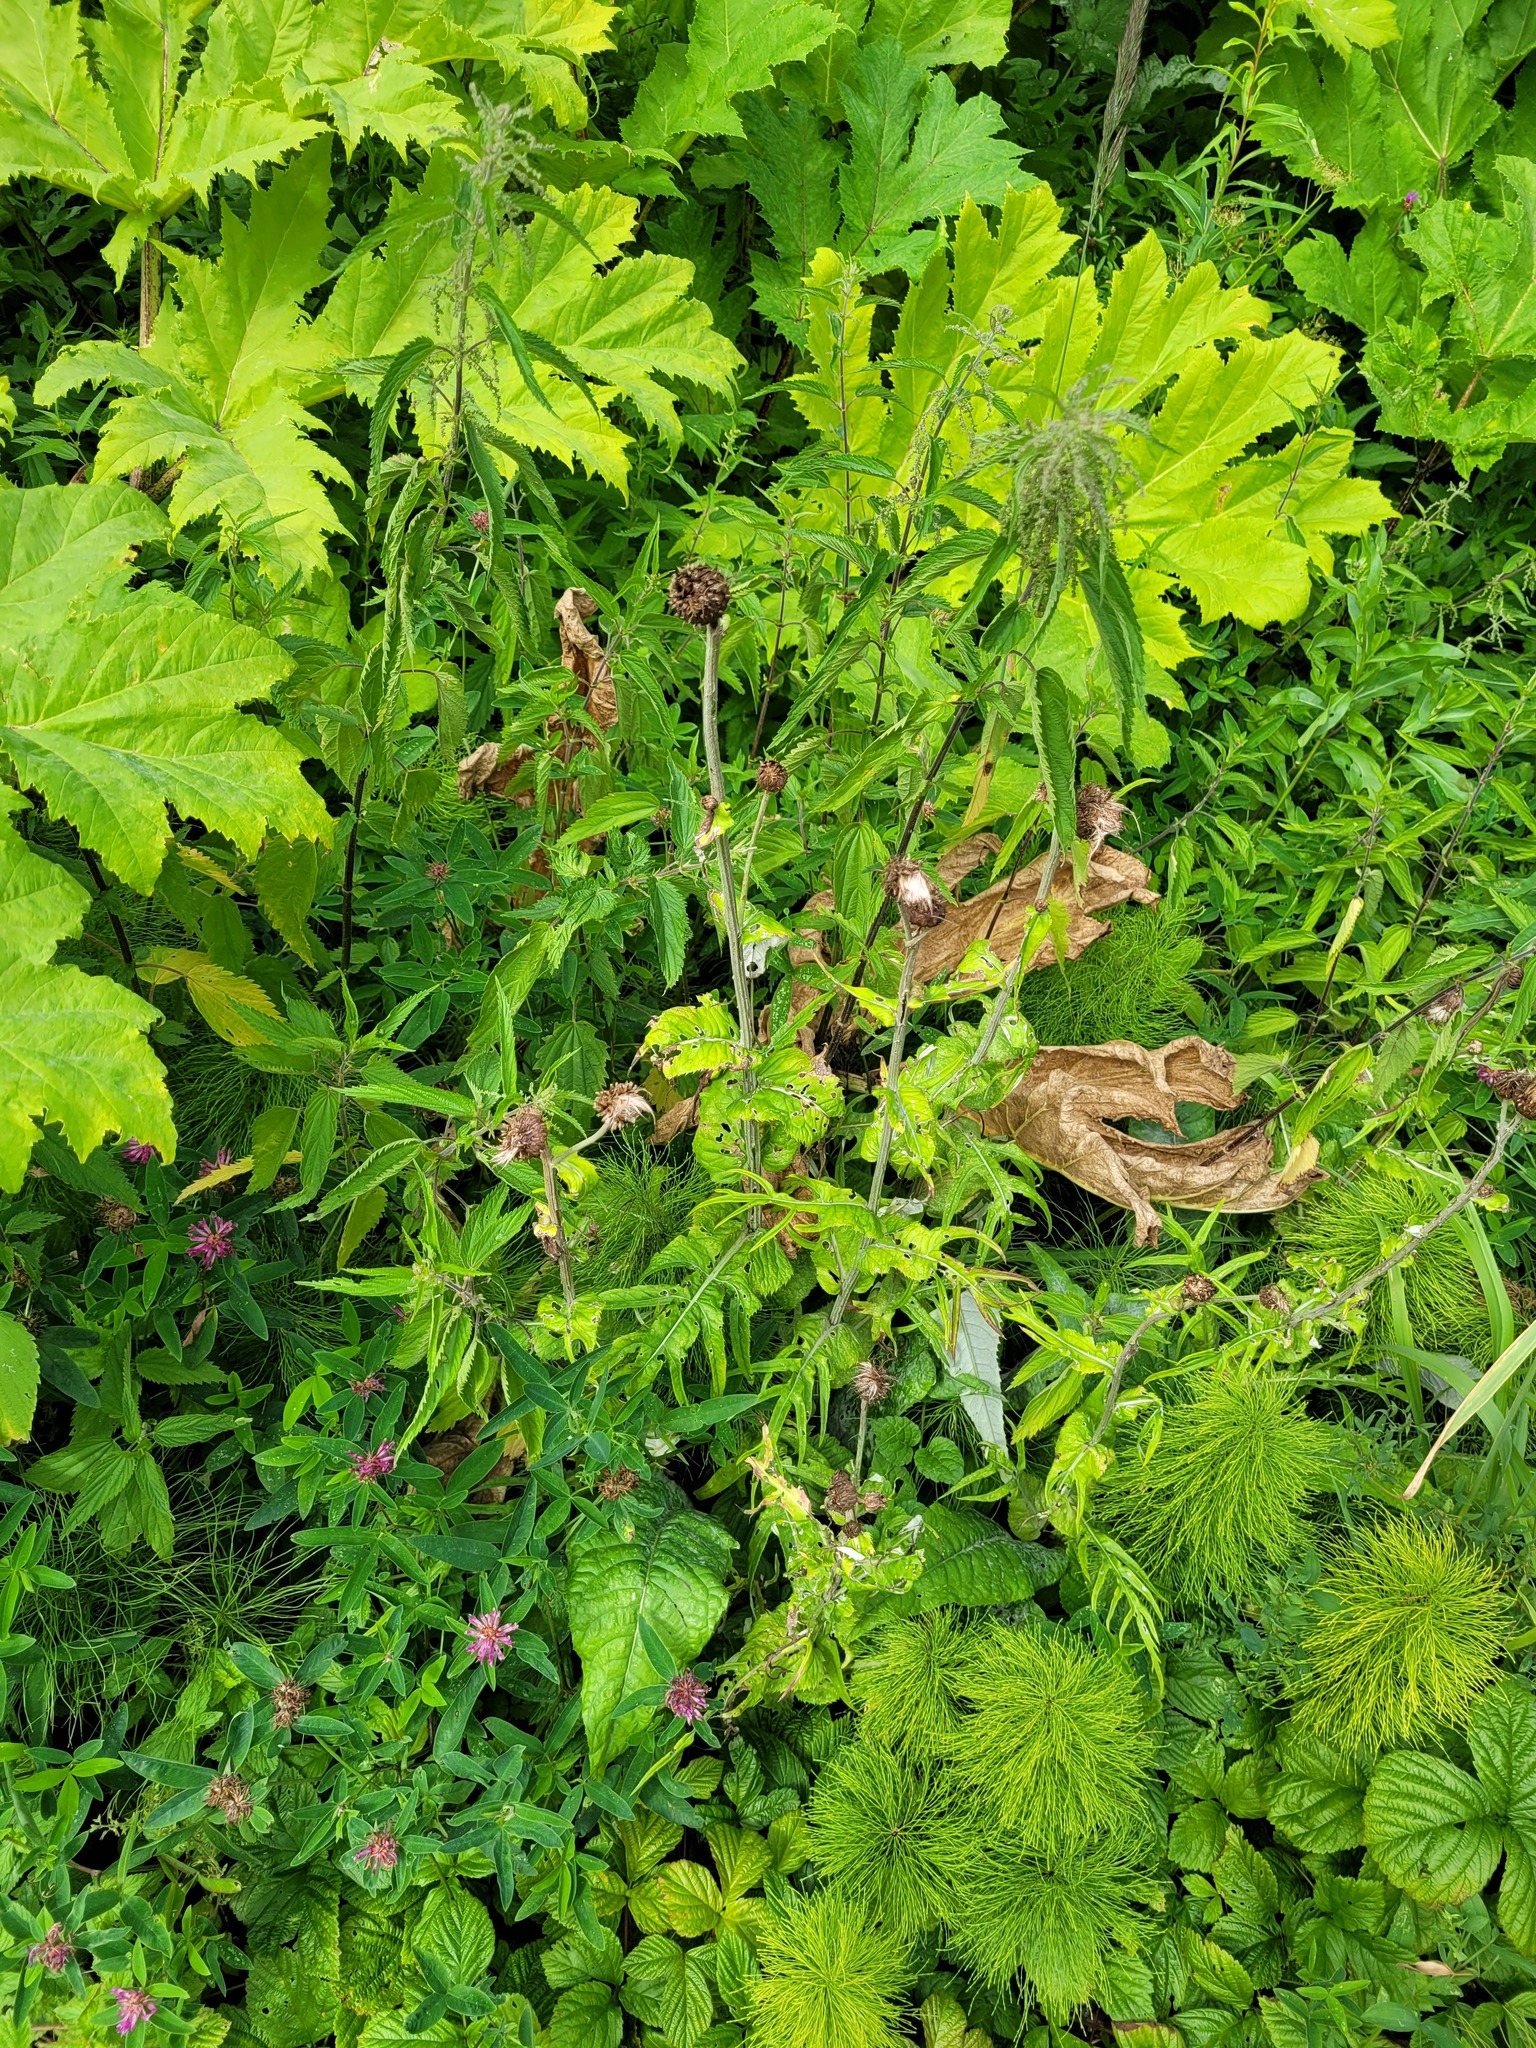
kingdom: Plantae
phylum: Tracheophyta
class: Magnoliopsida
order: Asterales
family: Asteraceae
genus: Cirsium
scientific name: Cirsium heterophyllum
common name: Melancholy thistle
